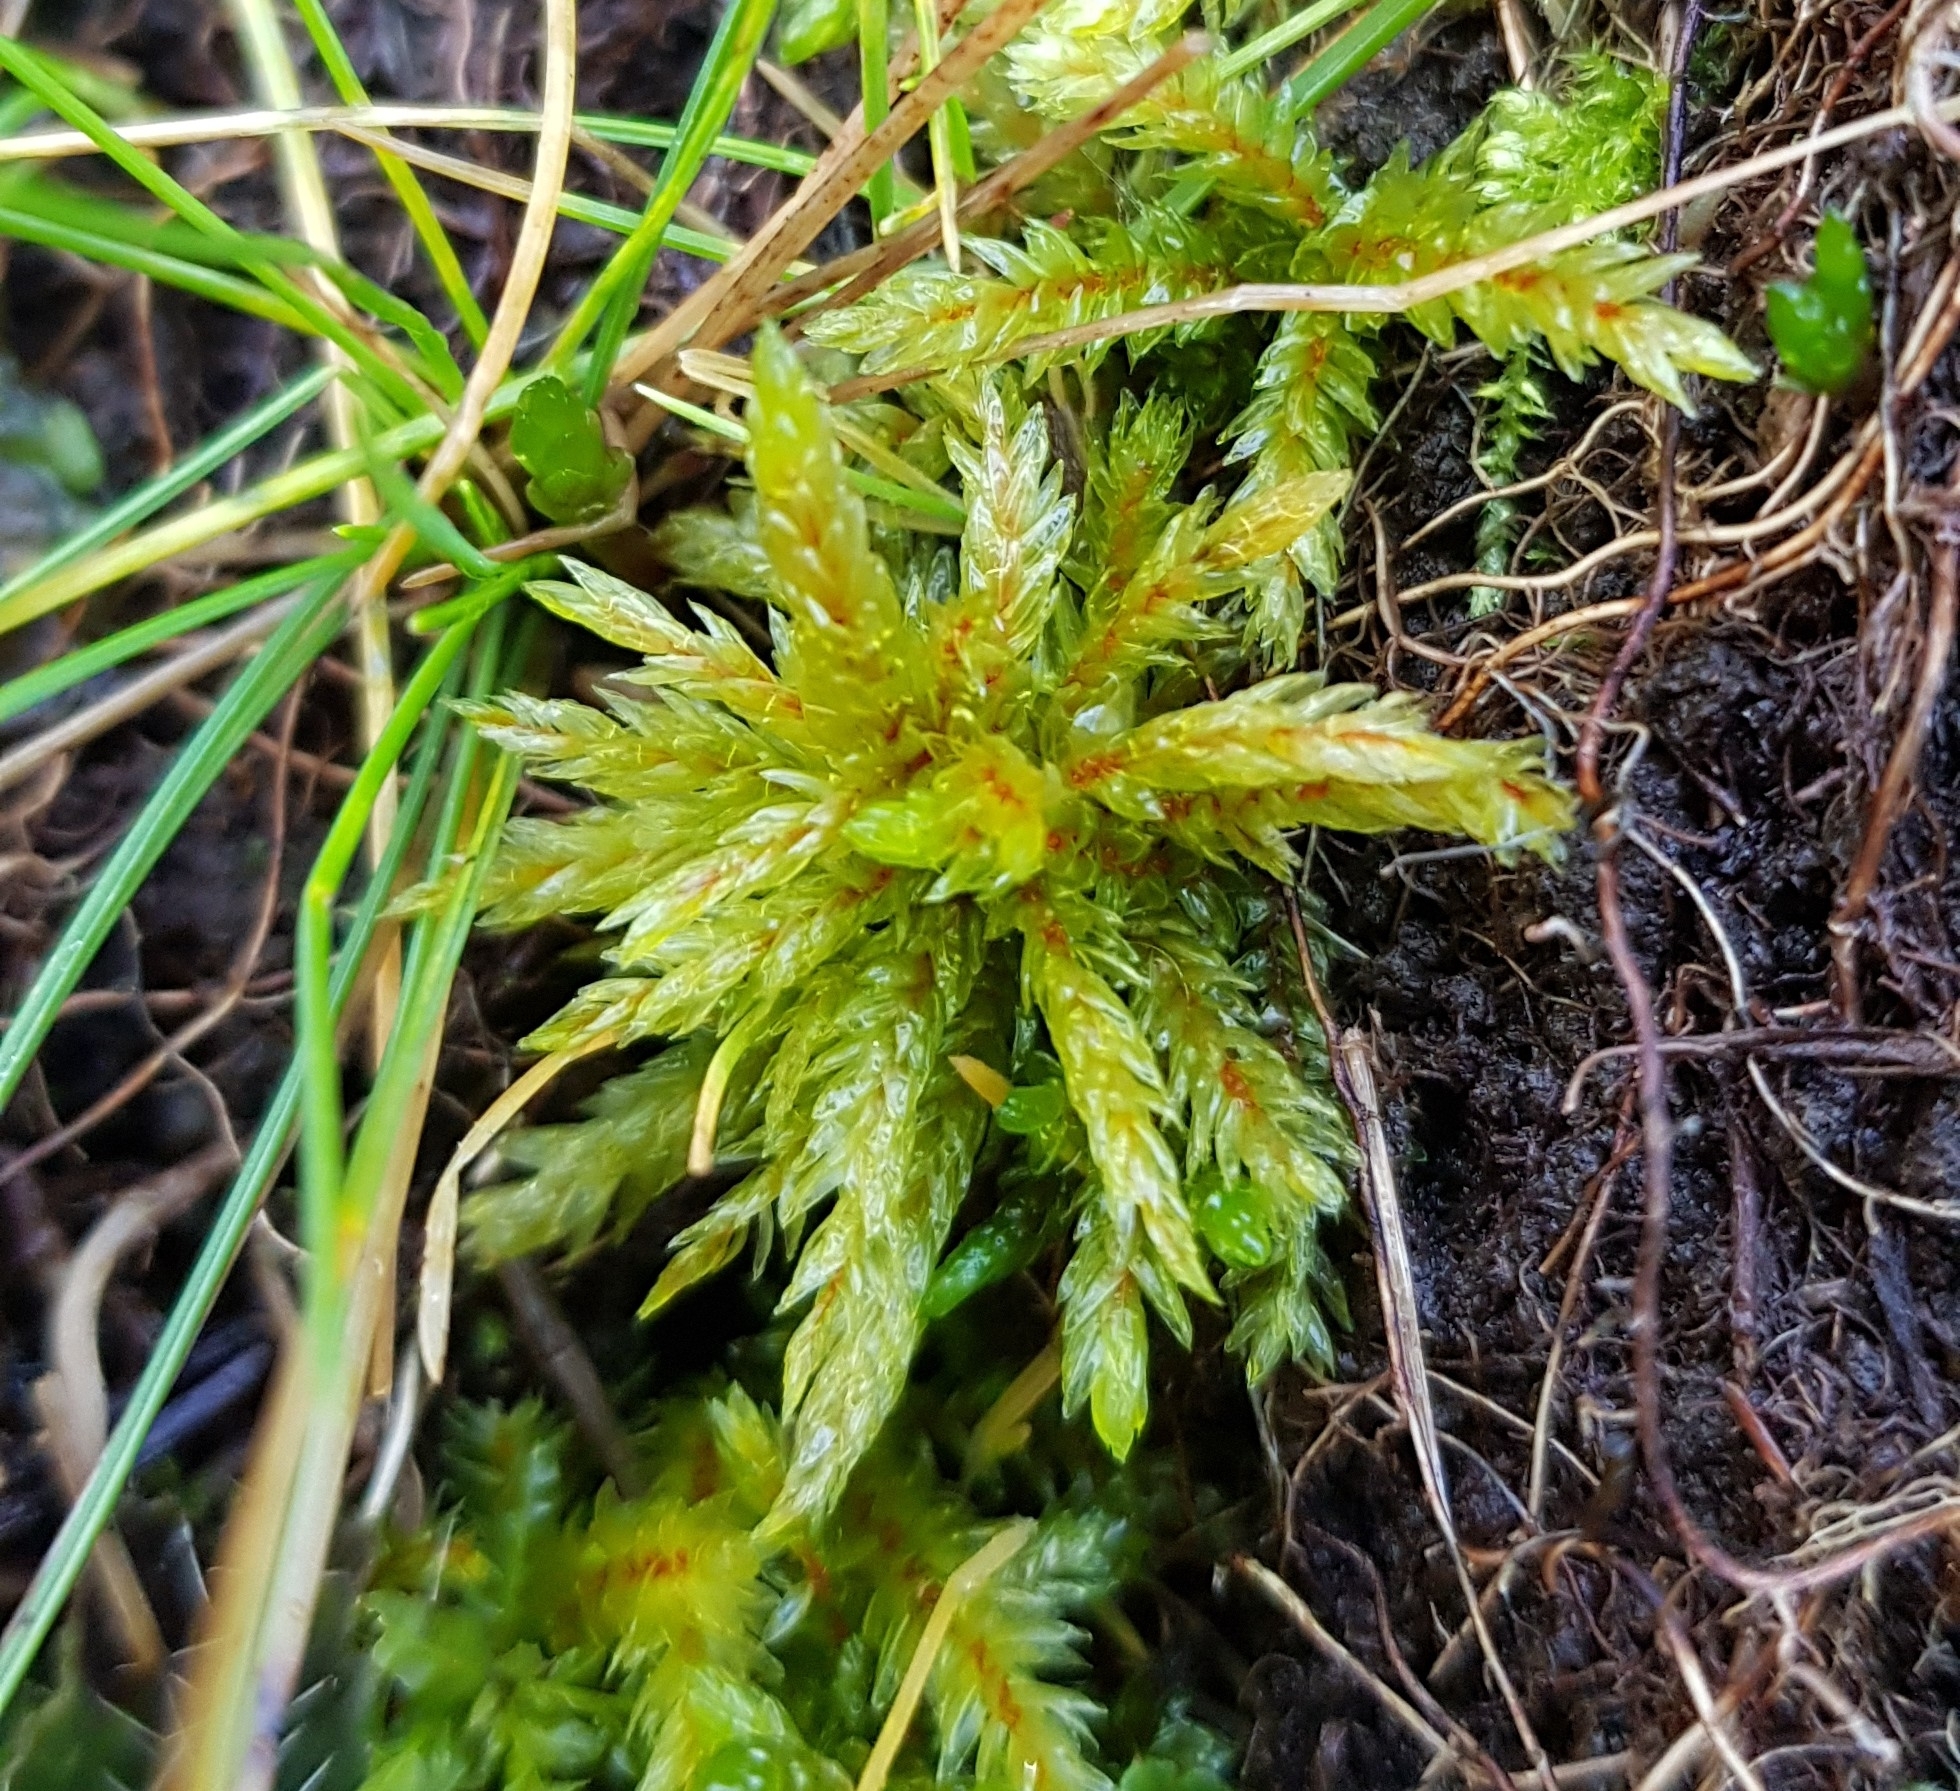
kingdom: Plantae
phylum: Bryophyta
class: Bryopsida
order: Hypnales
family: Climaciaceae
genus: Climacium
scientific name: Climacium dendroides
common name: Northern tree moss
